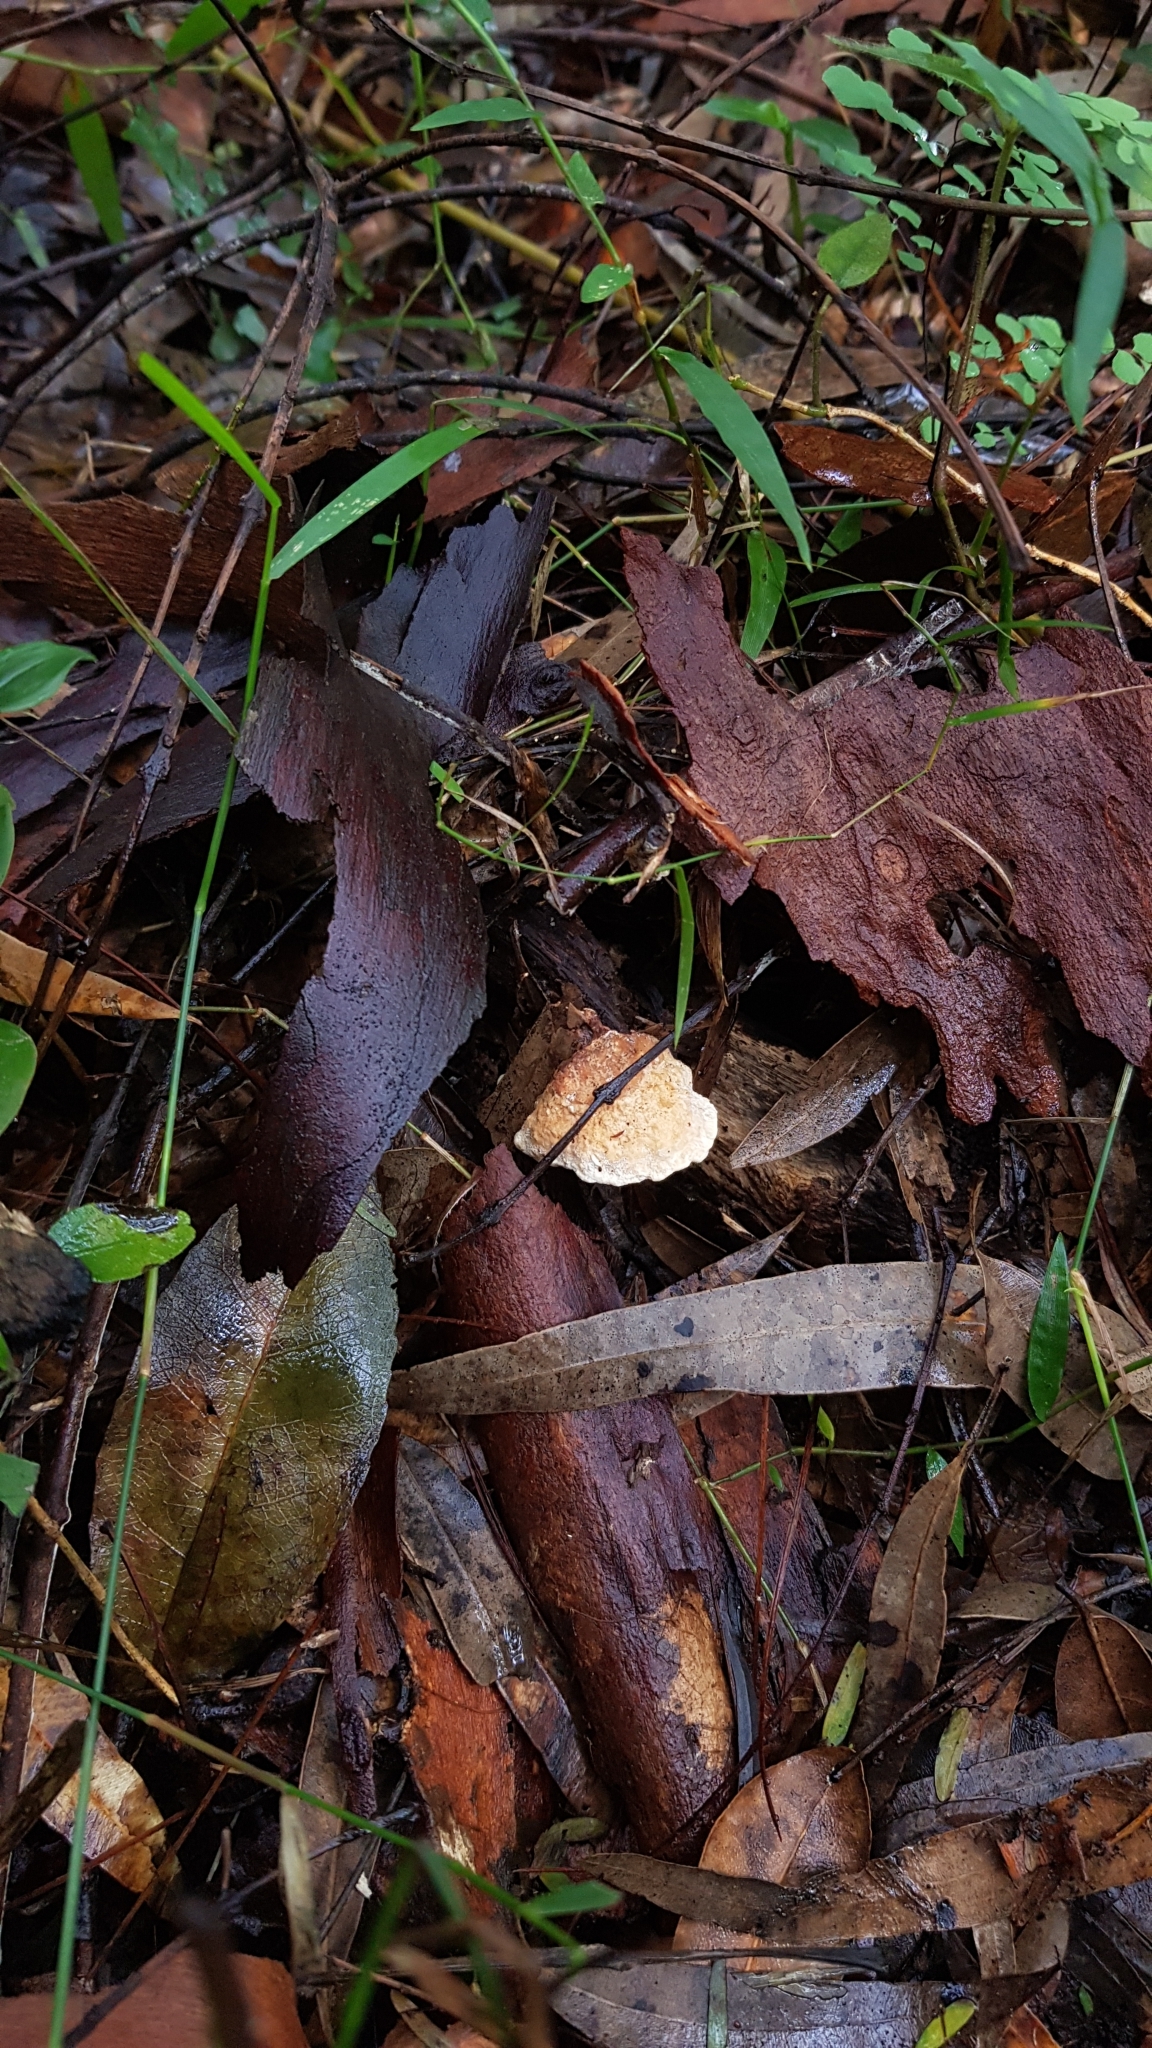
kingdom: Fungi
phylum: Basidiomycota
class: Agaricomycetes
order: Polyporales
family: Polyporaceae
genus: Truncospora
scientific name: Truncospora ochroleuca
